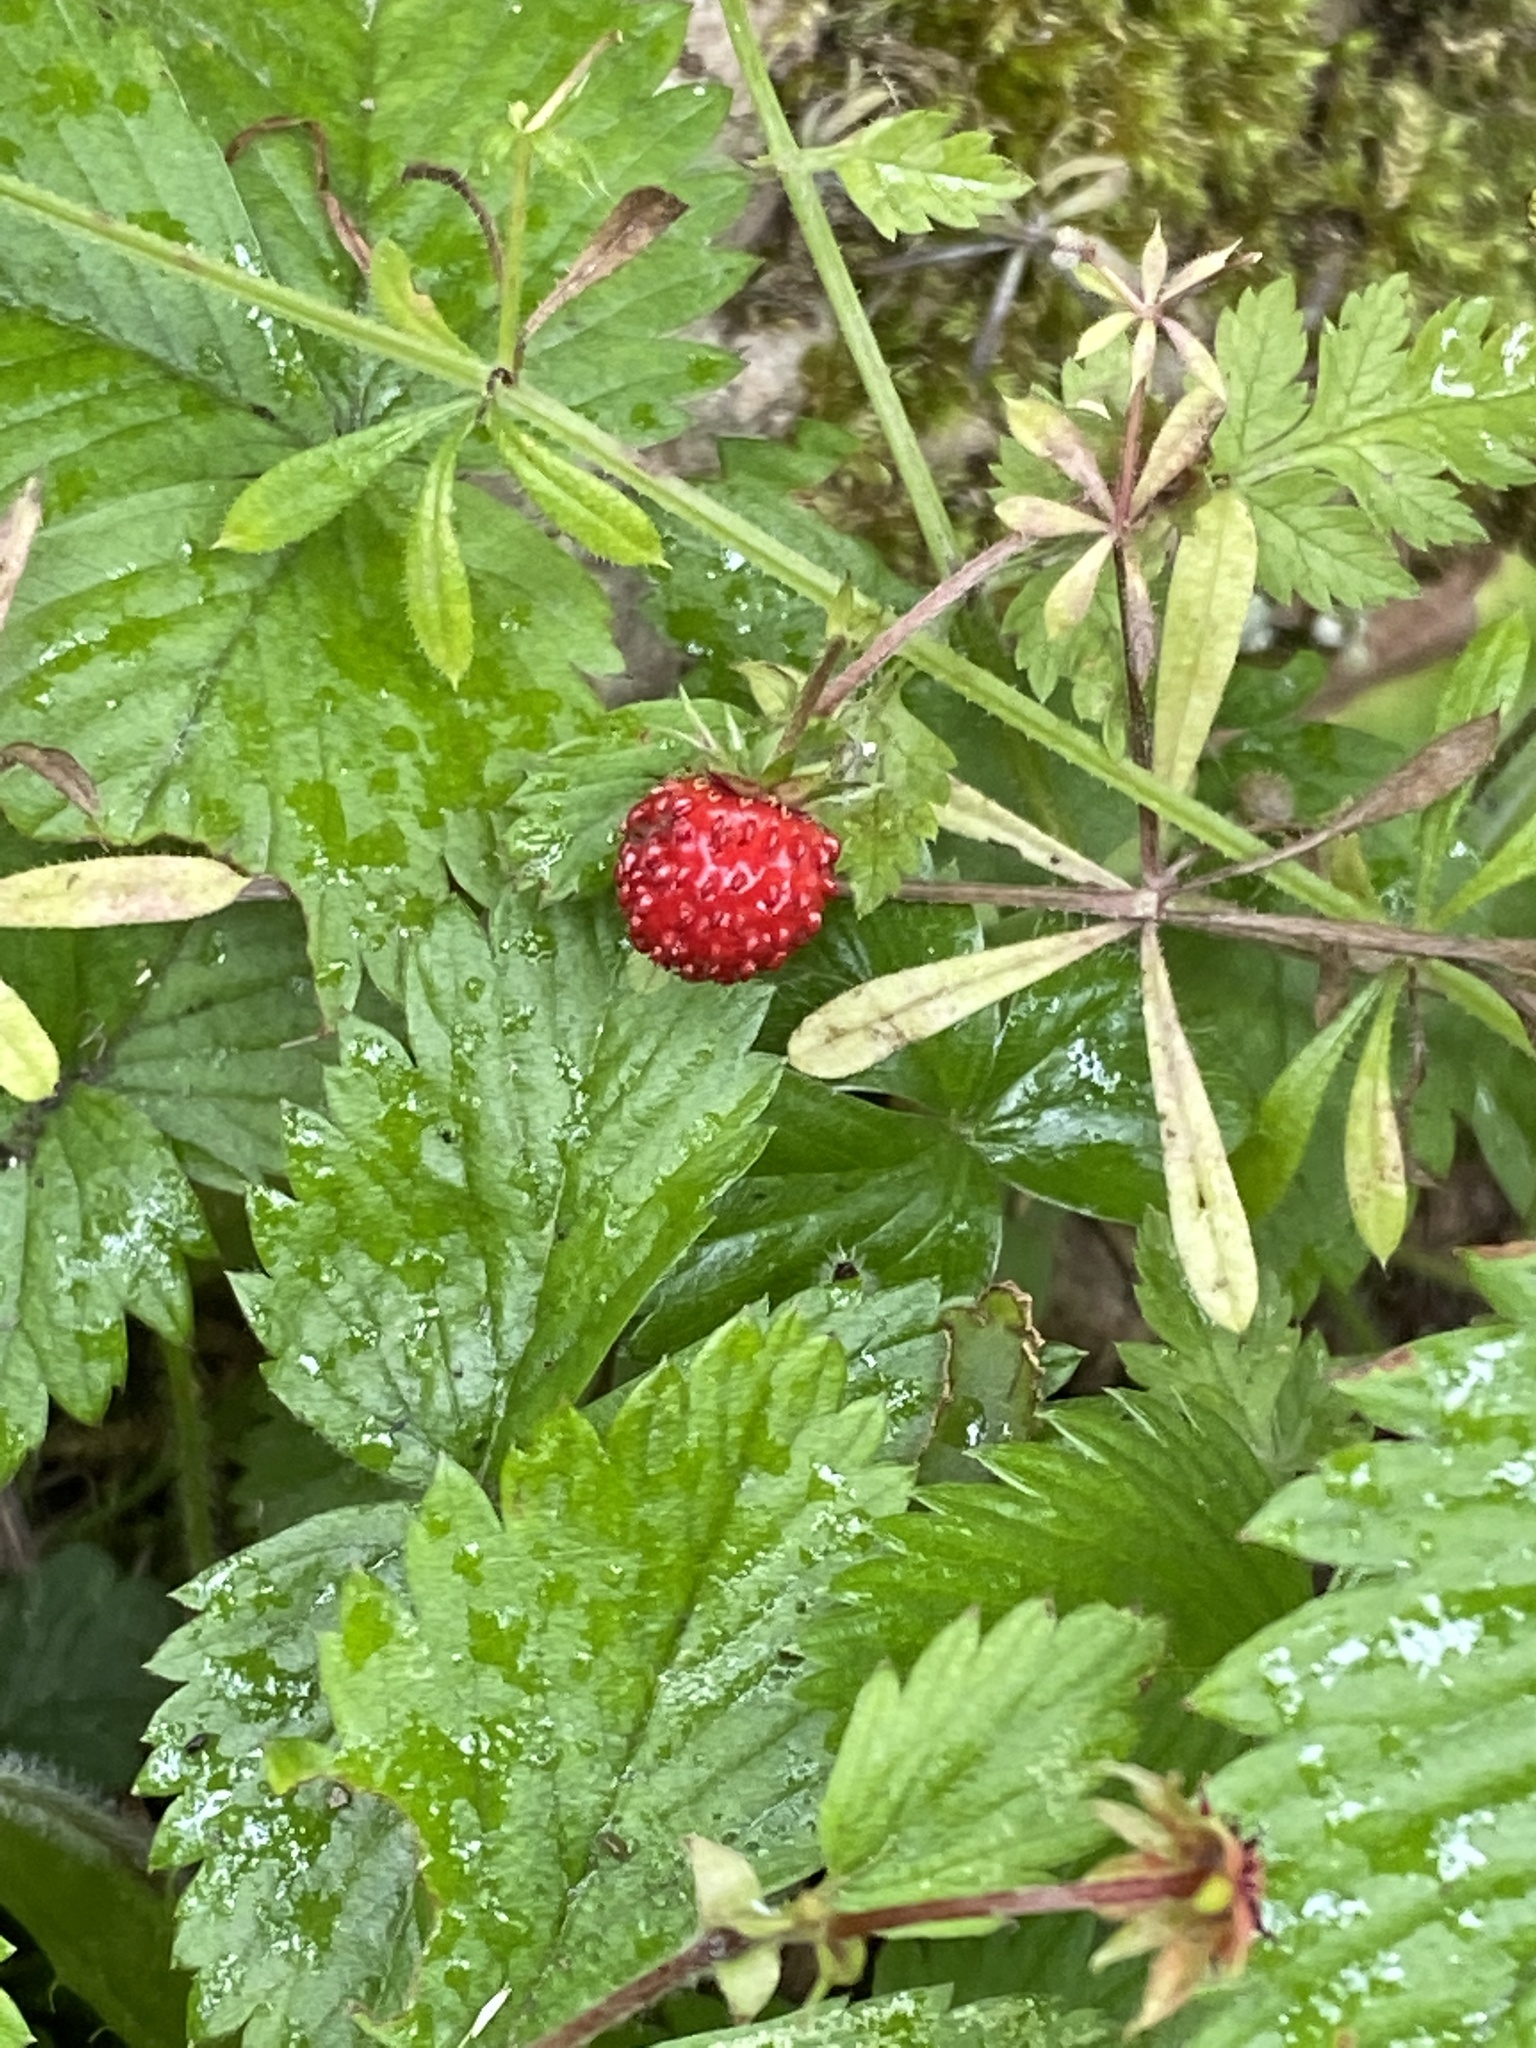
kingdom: Plantae
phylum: Tracheophyta
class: Magnoliopsida
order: Rosales
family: Rosaceae
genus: Fragaria
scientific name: Fragaria vesca
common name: Wild strawberry
